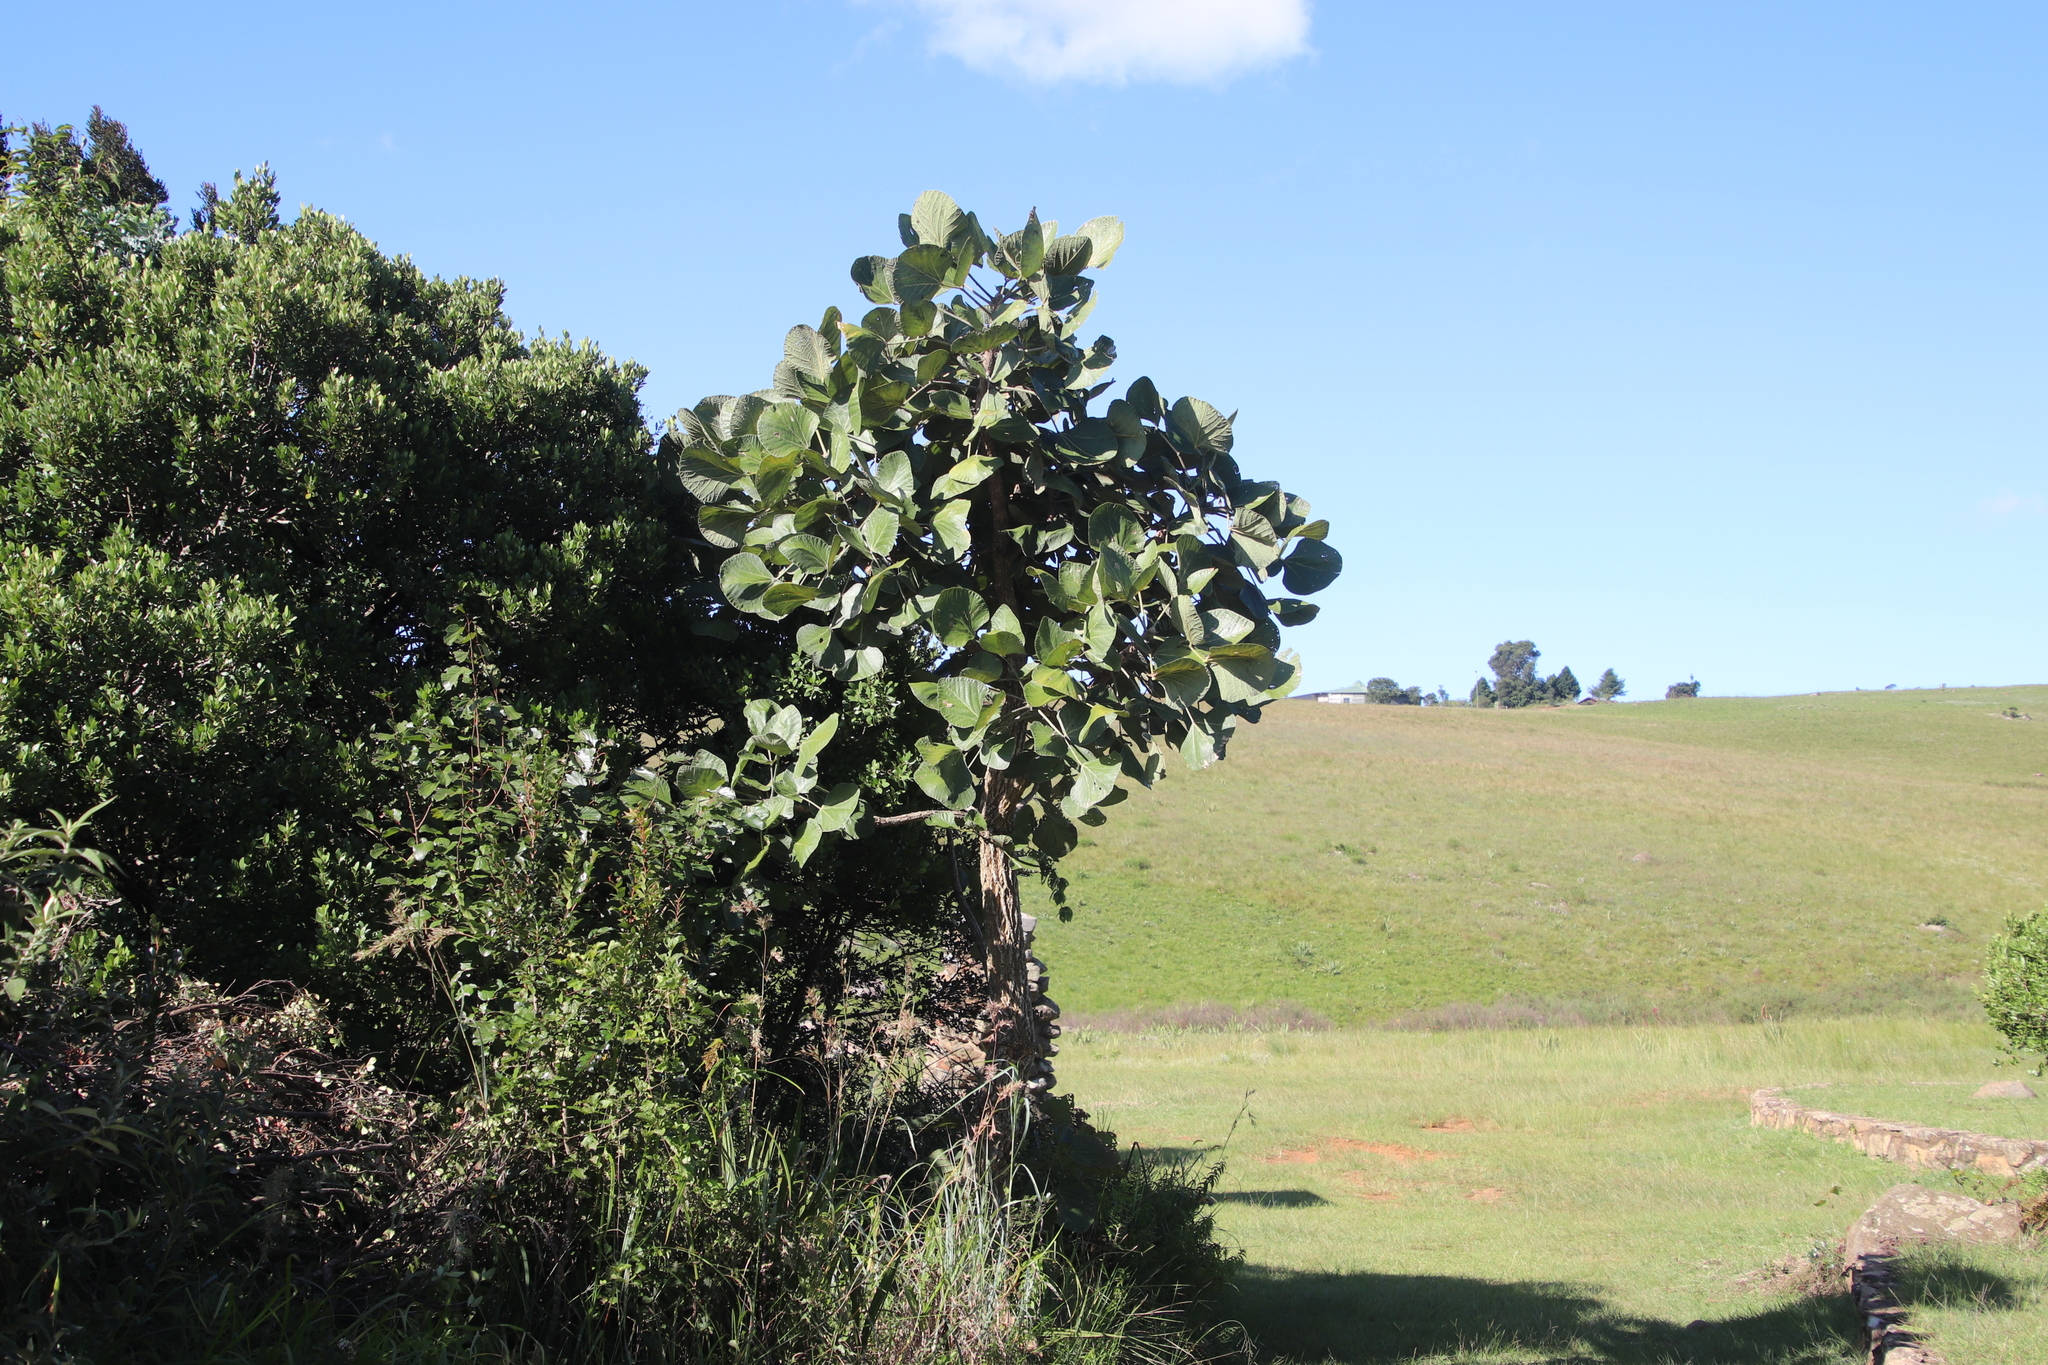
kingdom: Plantae
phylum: Tracheophyta
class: Magnoliopsida
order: Fabales
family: Fabaceae
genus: Erythrina
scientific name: Erythrina latissima
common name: Broad-leaved coral tree
